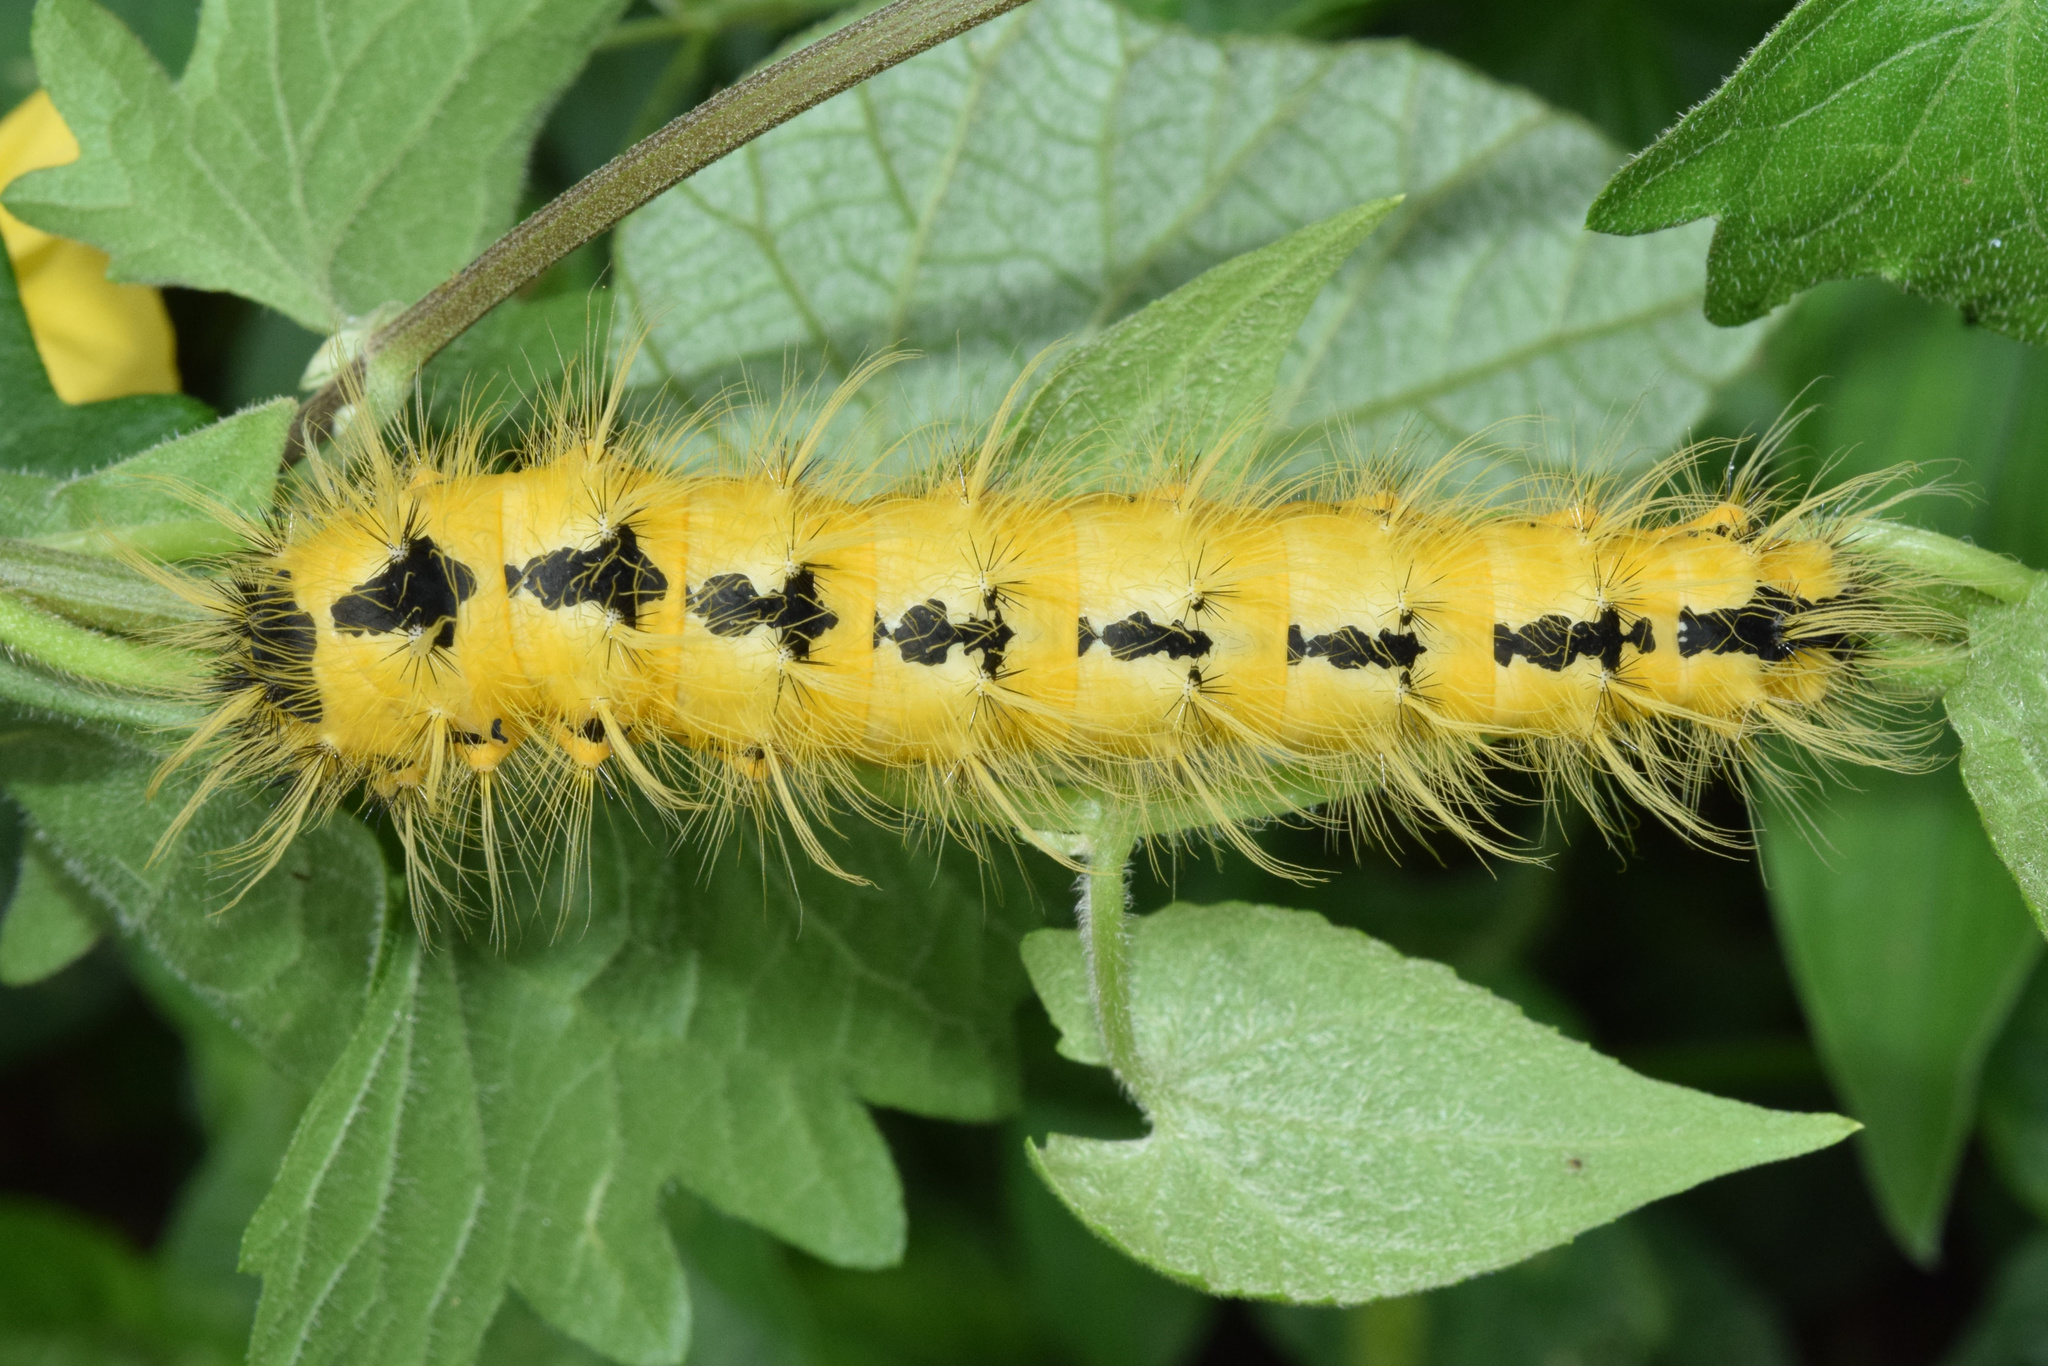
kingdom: Animalia
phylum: Arthropoda
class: Insecta
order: Lepidoptera
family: Saturniidae
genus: Ludia
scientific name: Ludia goniata
